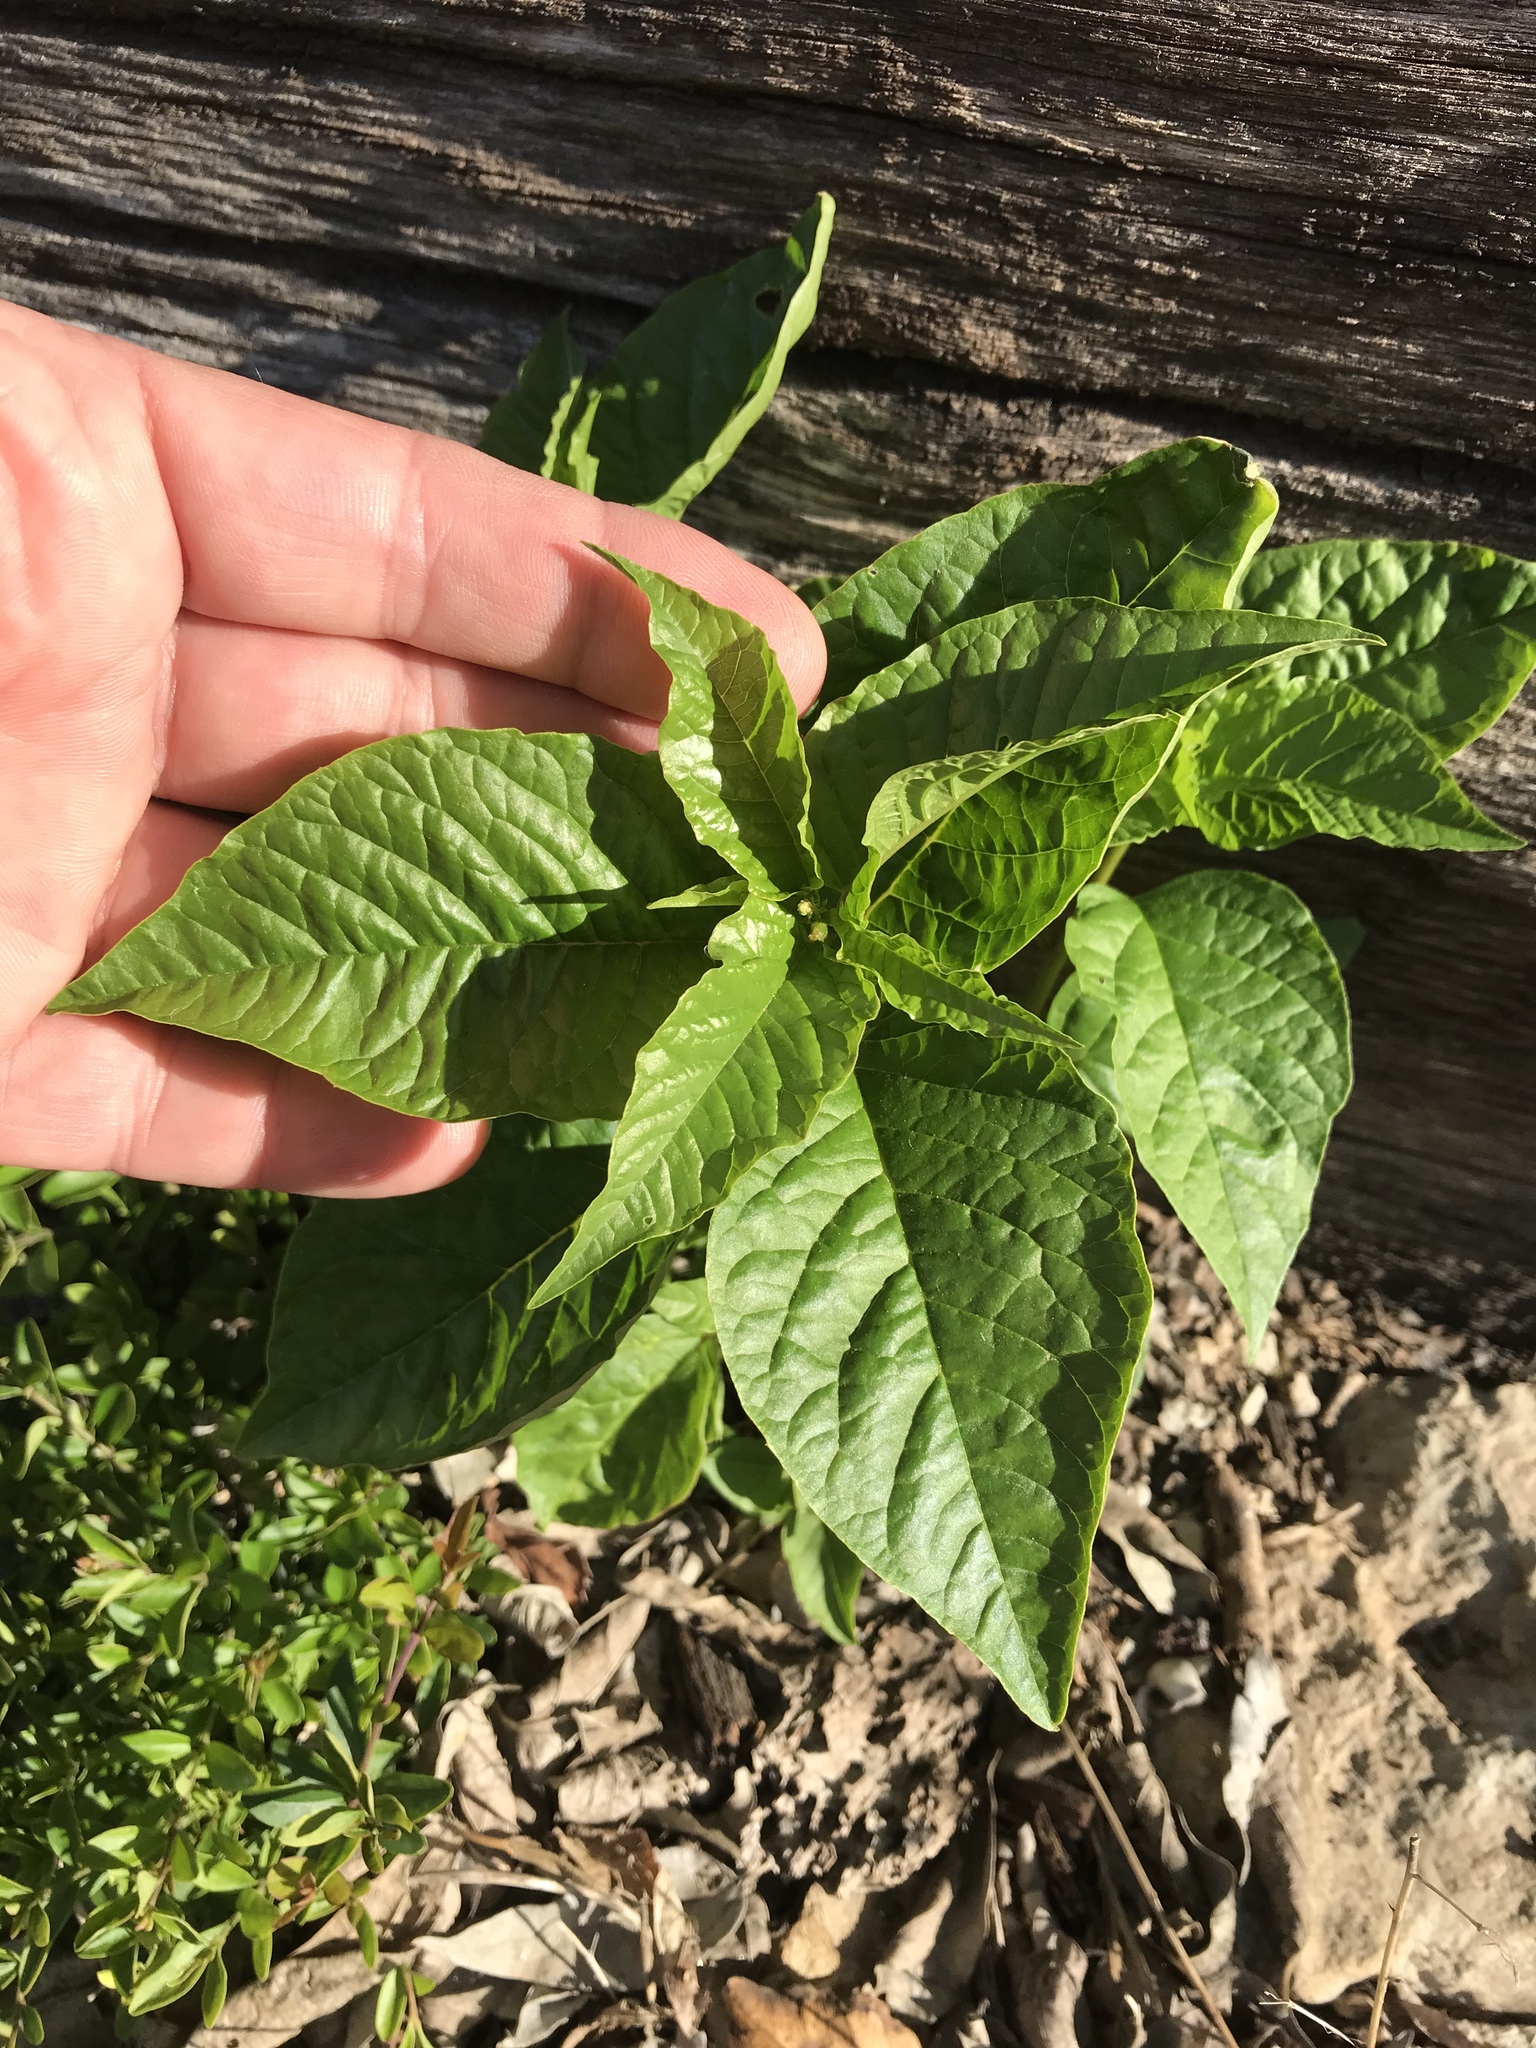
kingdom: Plantae
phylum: Tracheophyta
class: Magnoliopsida
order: Caryophyllales
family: Phytolaccaceae
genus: Rivina
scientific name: Rivina humilis
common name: Rougeplant
